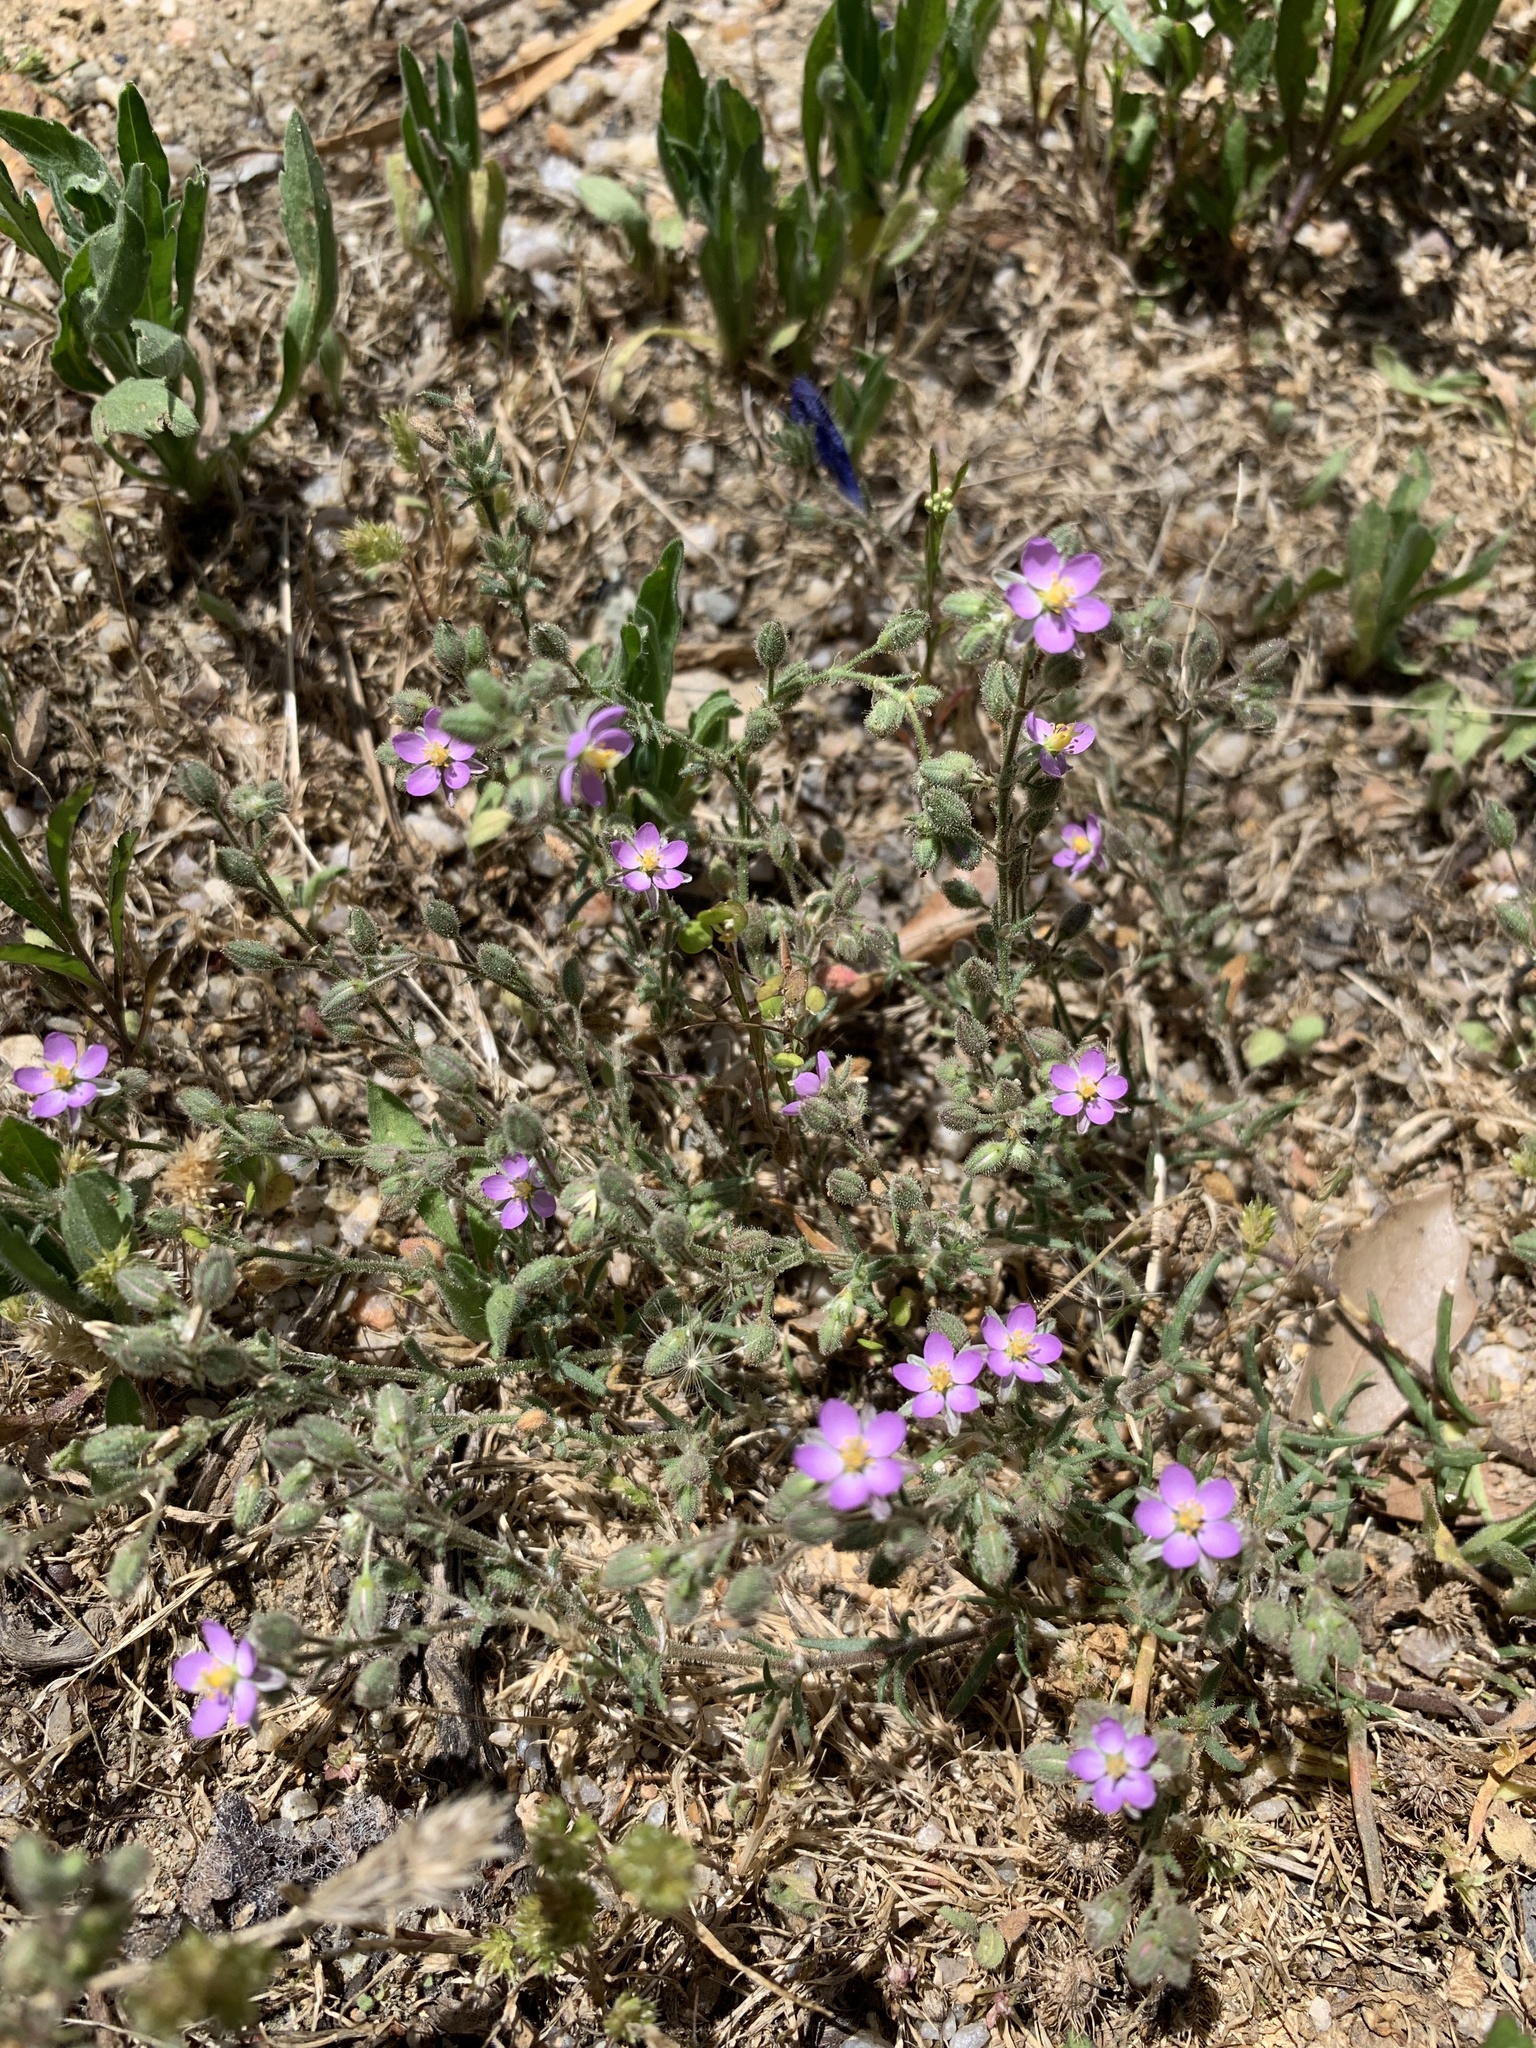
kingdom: Plantae
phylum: Tracheophyta
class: Magnoliopsida
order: Caryophyllales
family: Caryophyllaceae
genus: Spergularia
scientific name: Spergularia rubra
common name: Red sand-spurrey
